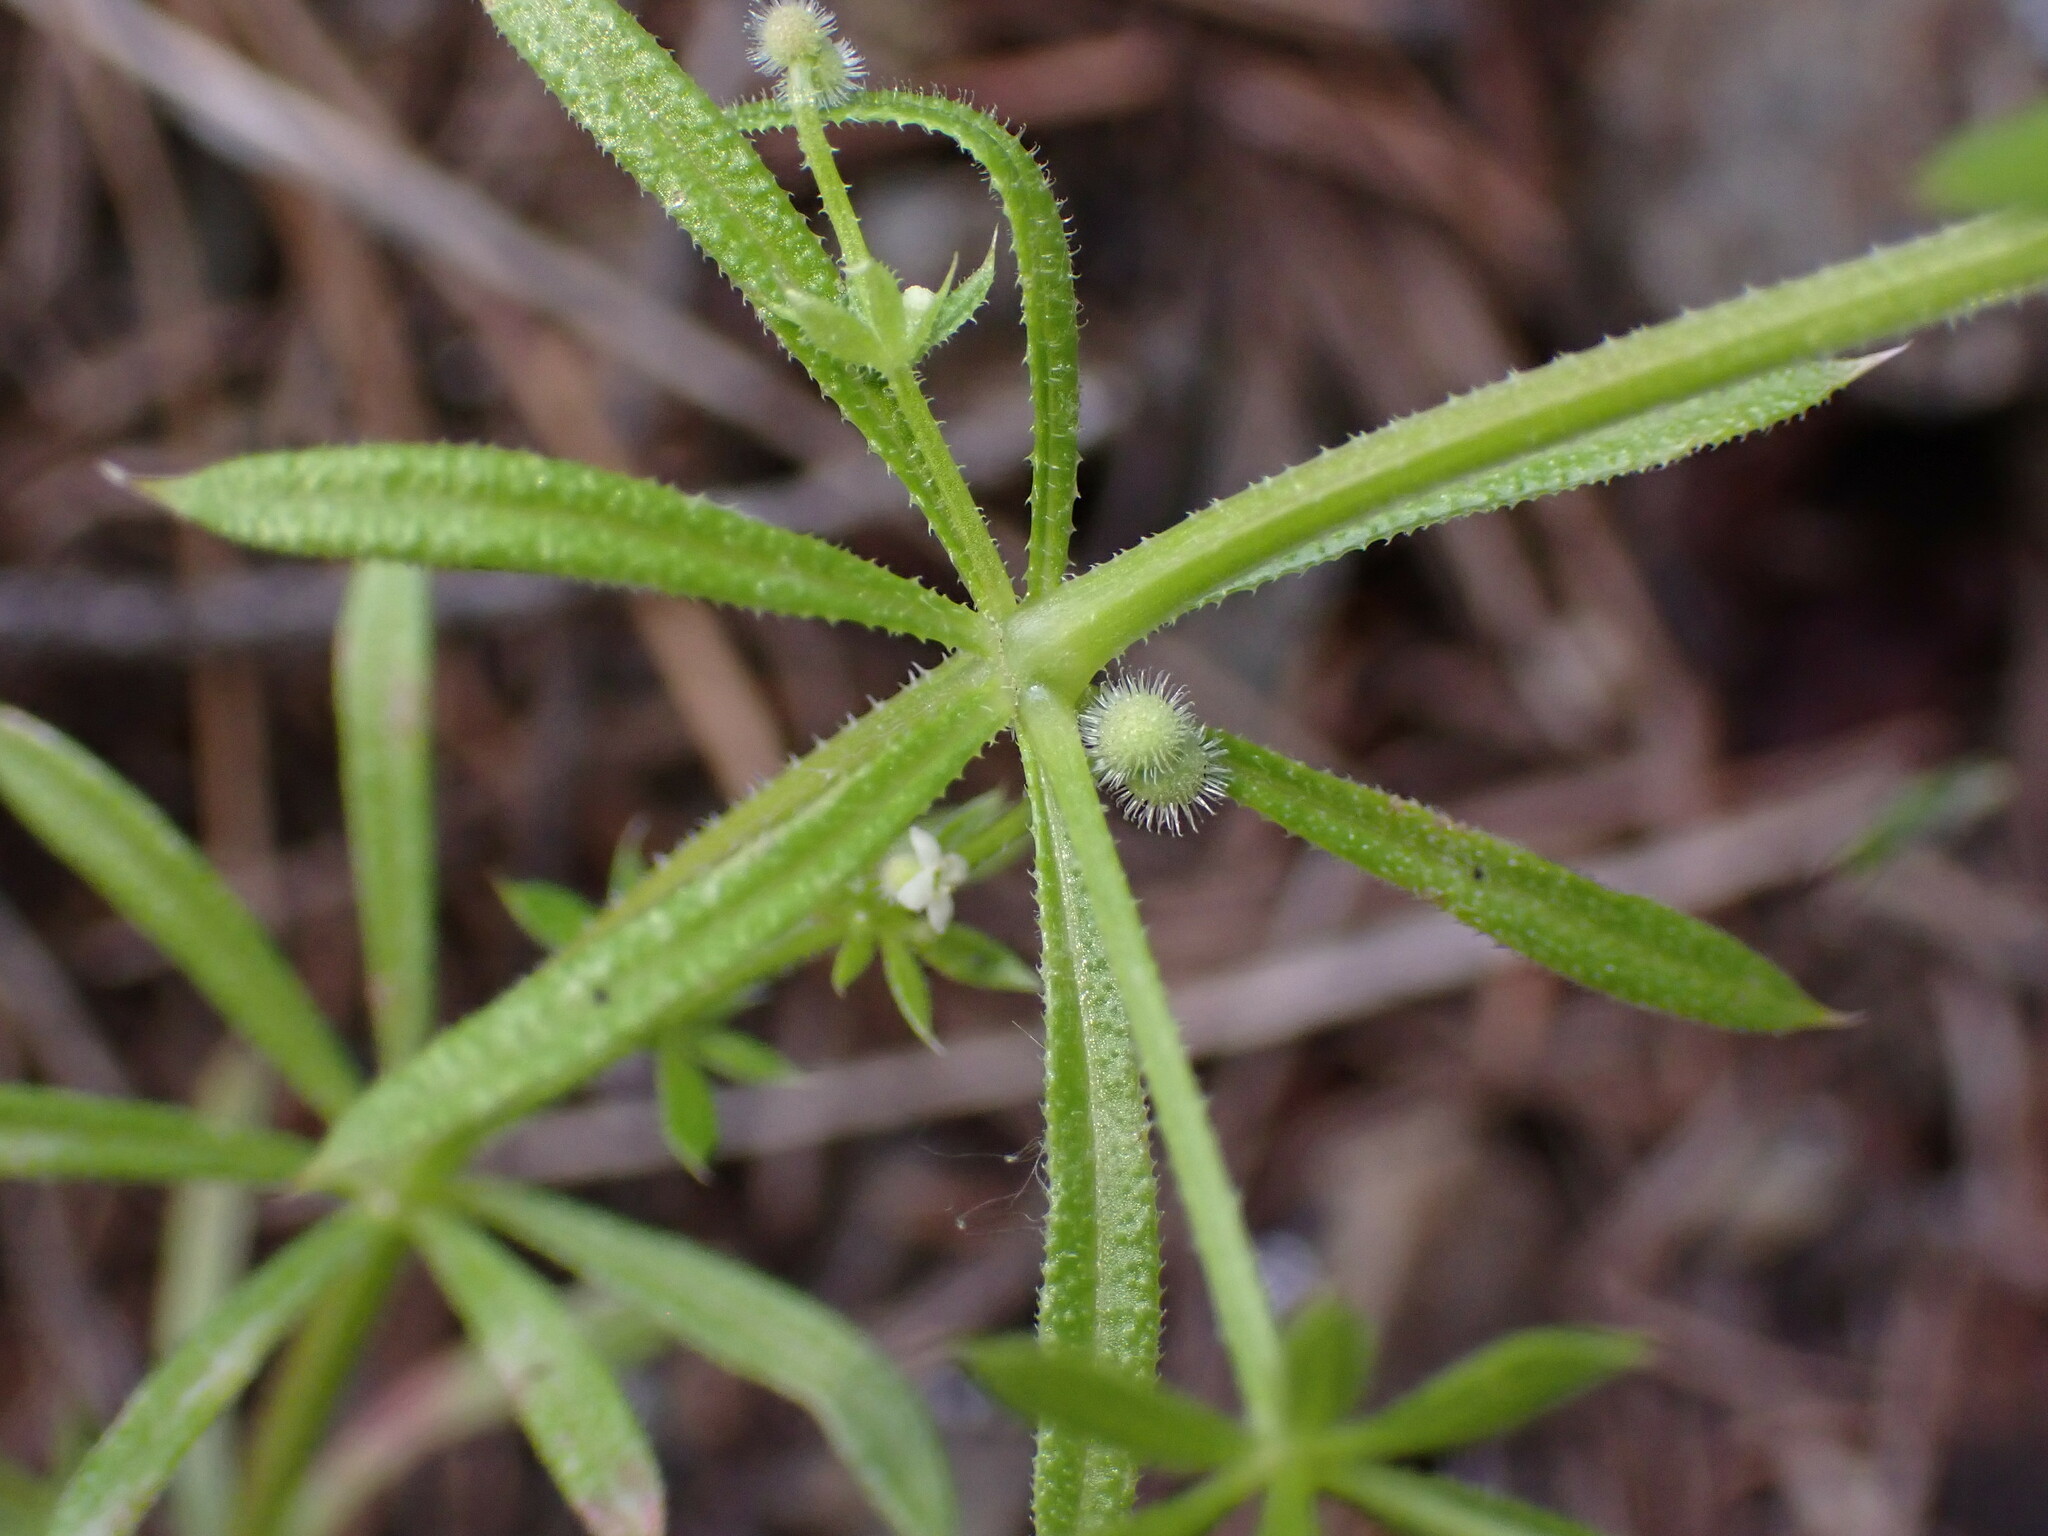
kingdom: Plantae
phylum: Tracheophyta
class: Magnoliopsida
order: Gentianales
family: Rubiaceae
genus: Galium
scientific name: Galium aparine
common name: Cleavers
